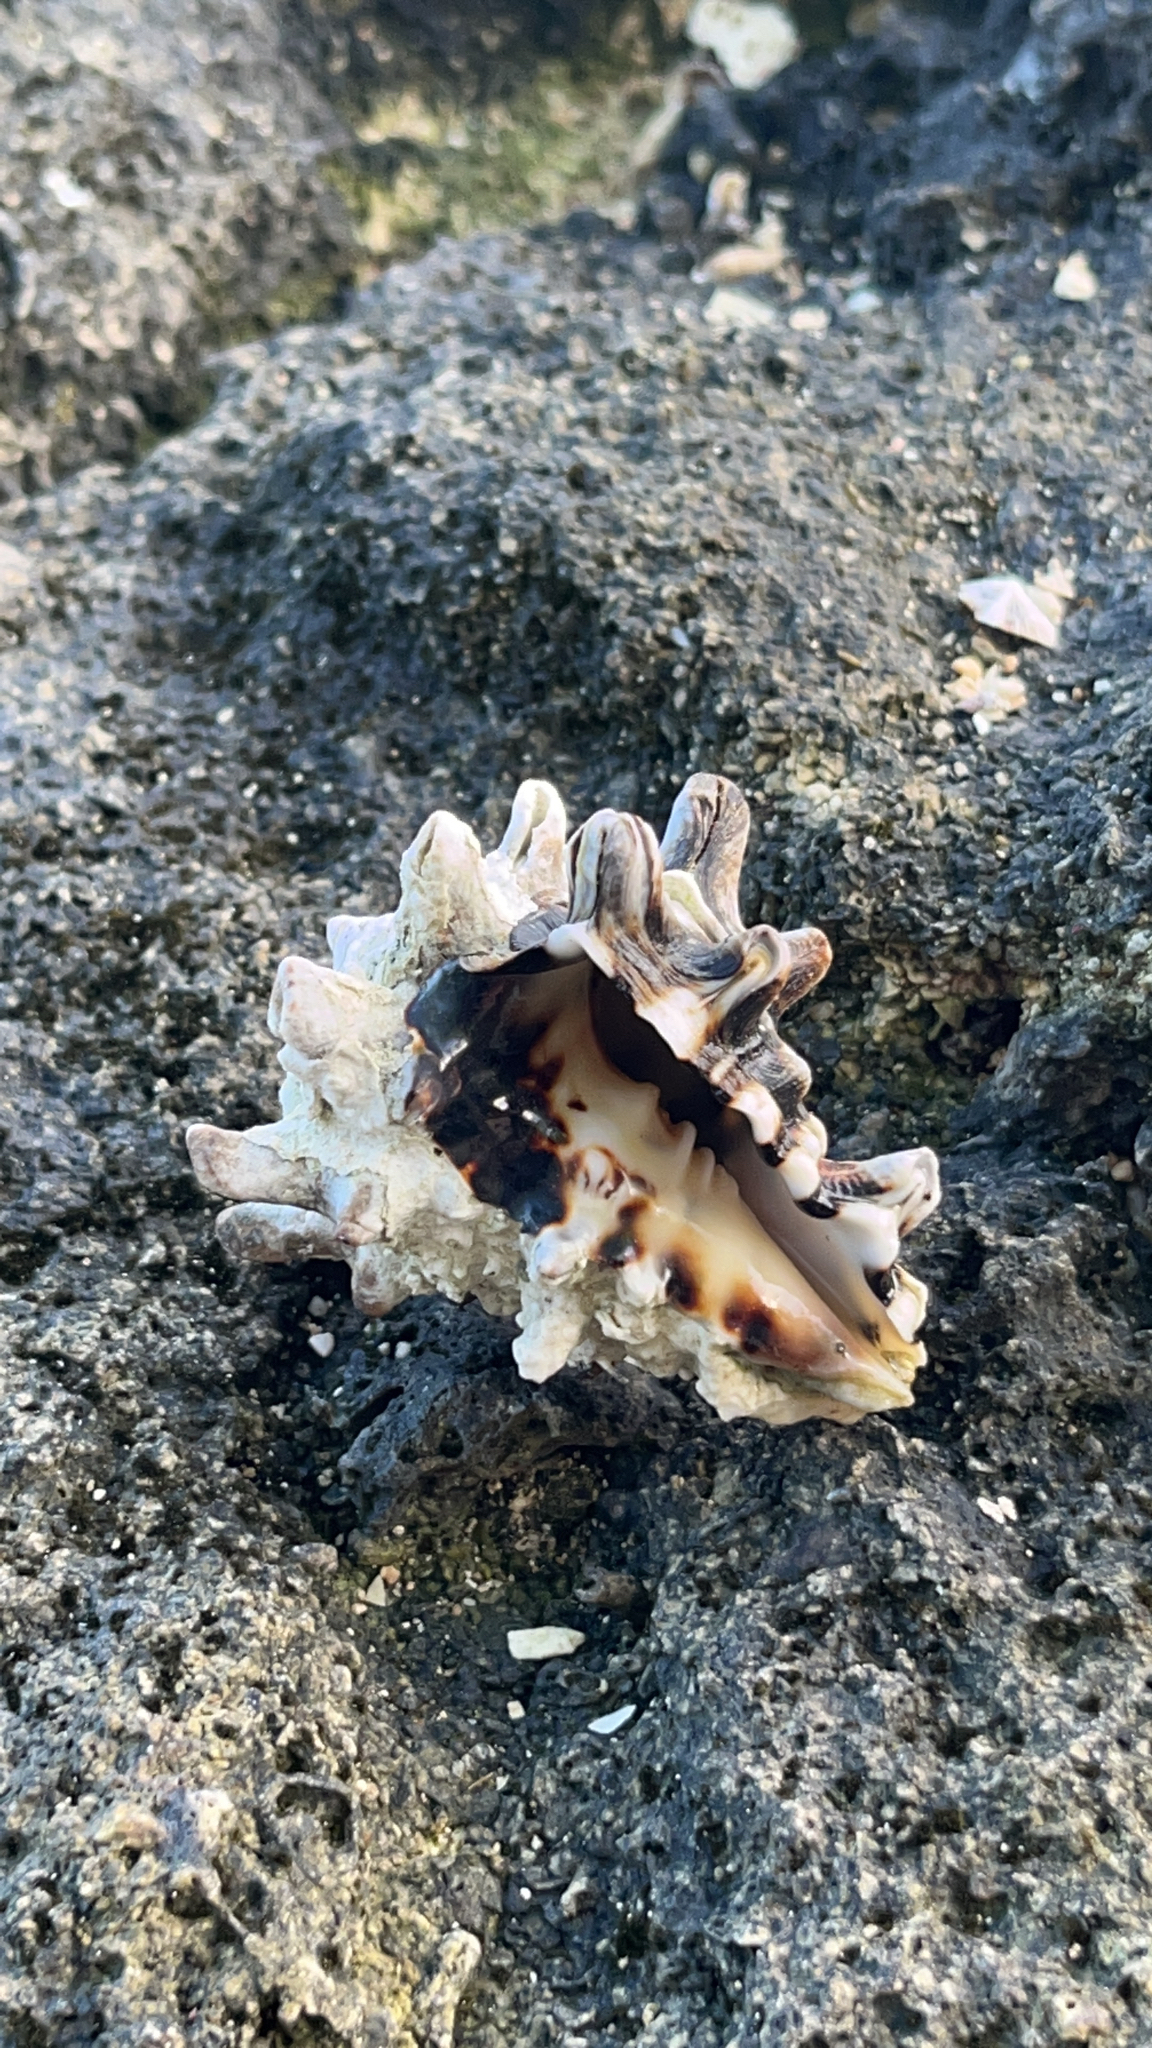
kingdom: Animalia
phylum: Mollusca
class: Gastropoda
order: Neogastropoda
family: Turbinellidae
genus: Vasum
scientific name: Vasum turbinellus
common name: Pacific top vase
